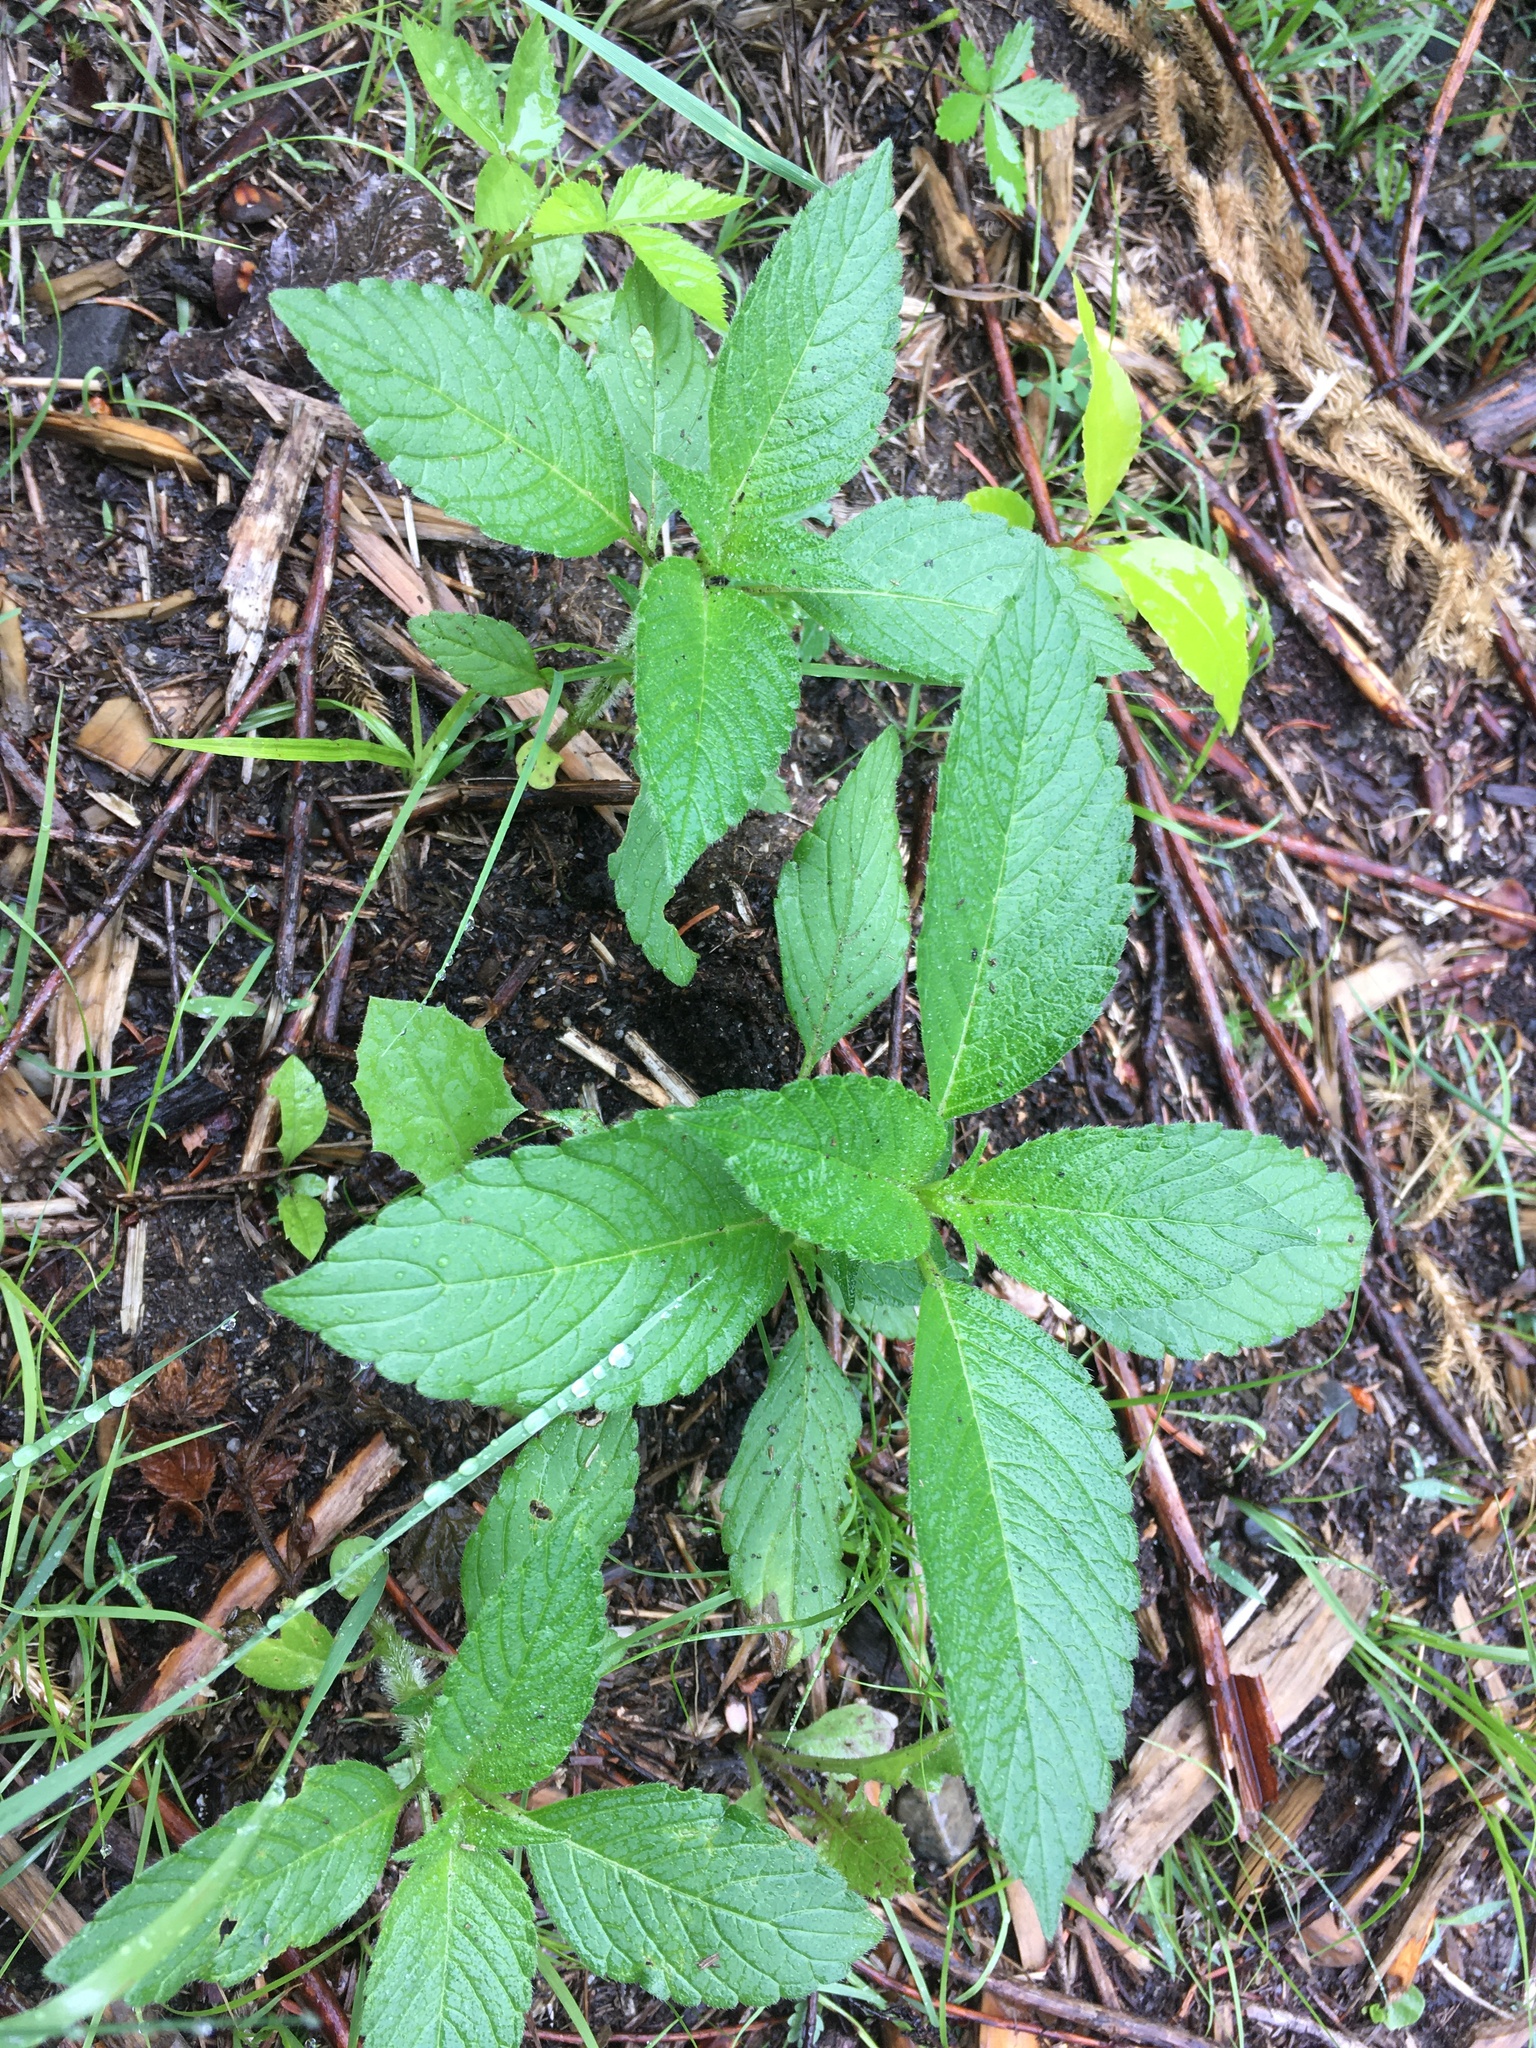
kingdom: Plantae
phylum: Tracheophyta
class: Magnoliopsida
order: Lamiales
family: Lamiaceae
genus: Galeopsis
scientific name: Galeopsis
